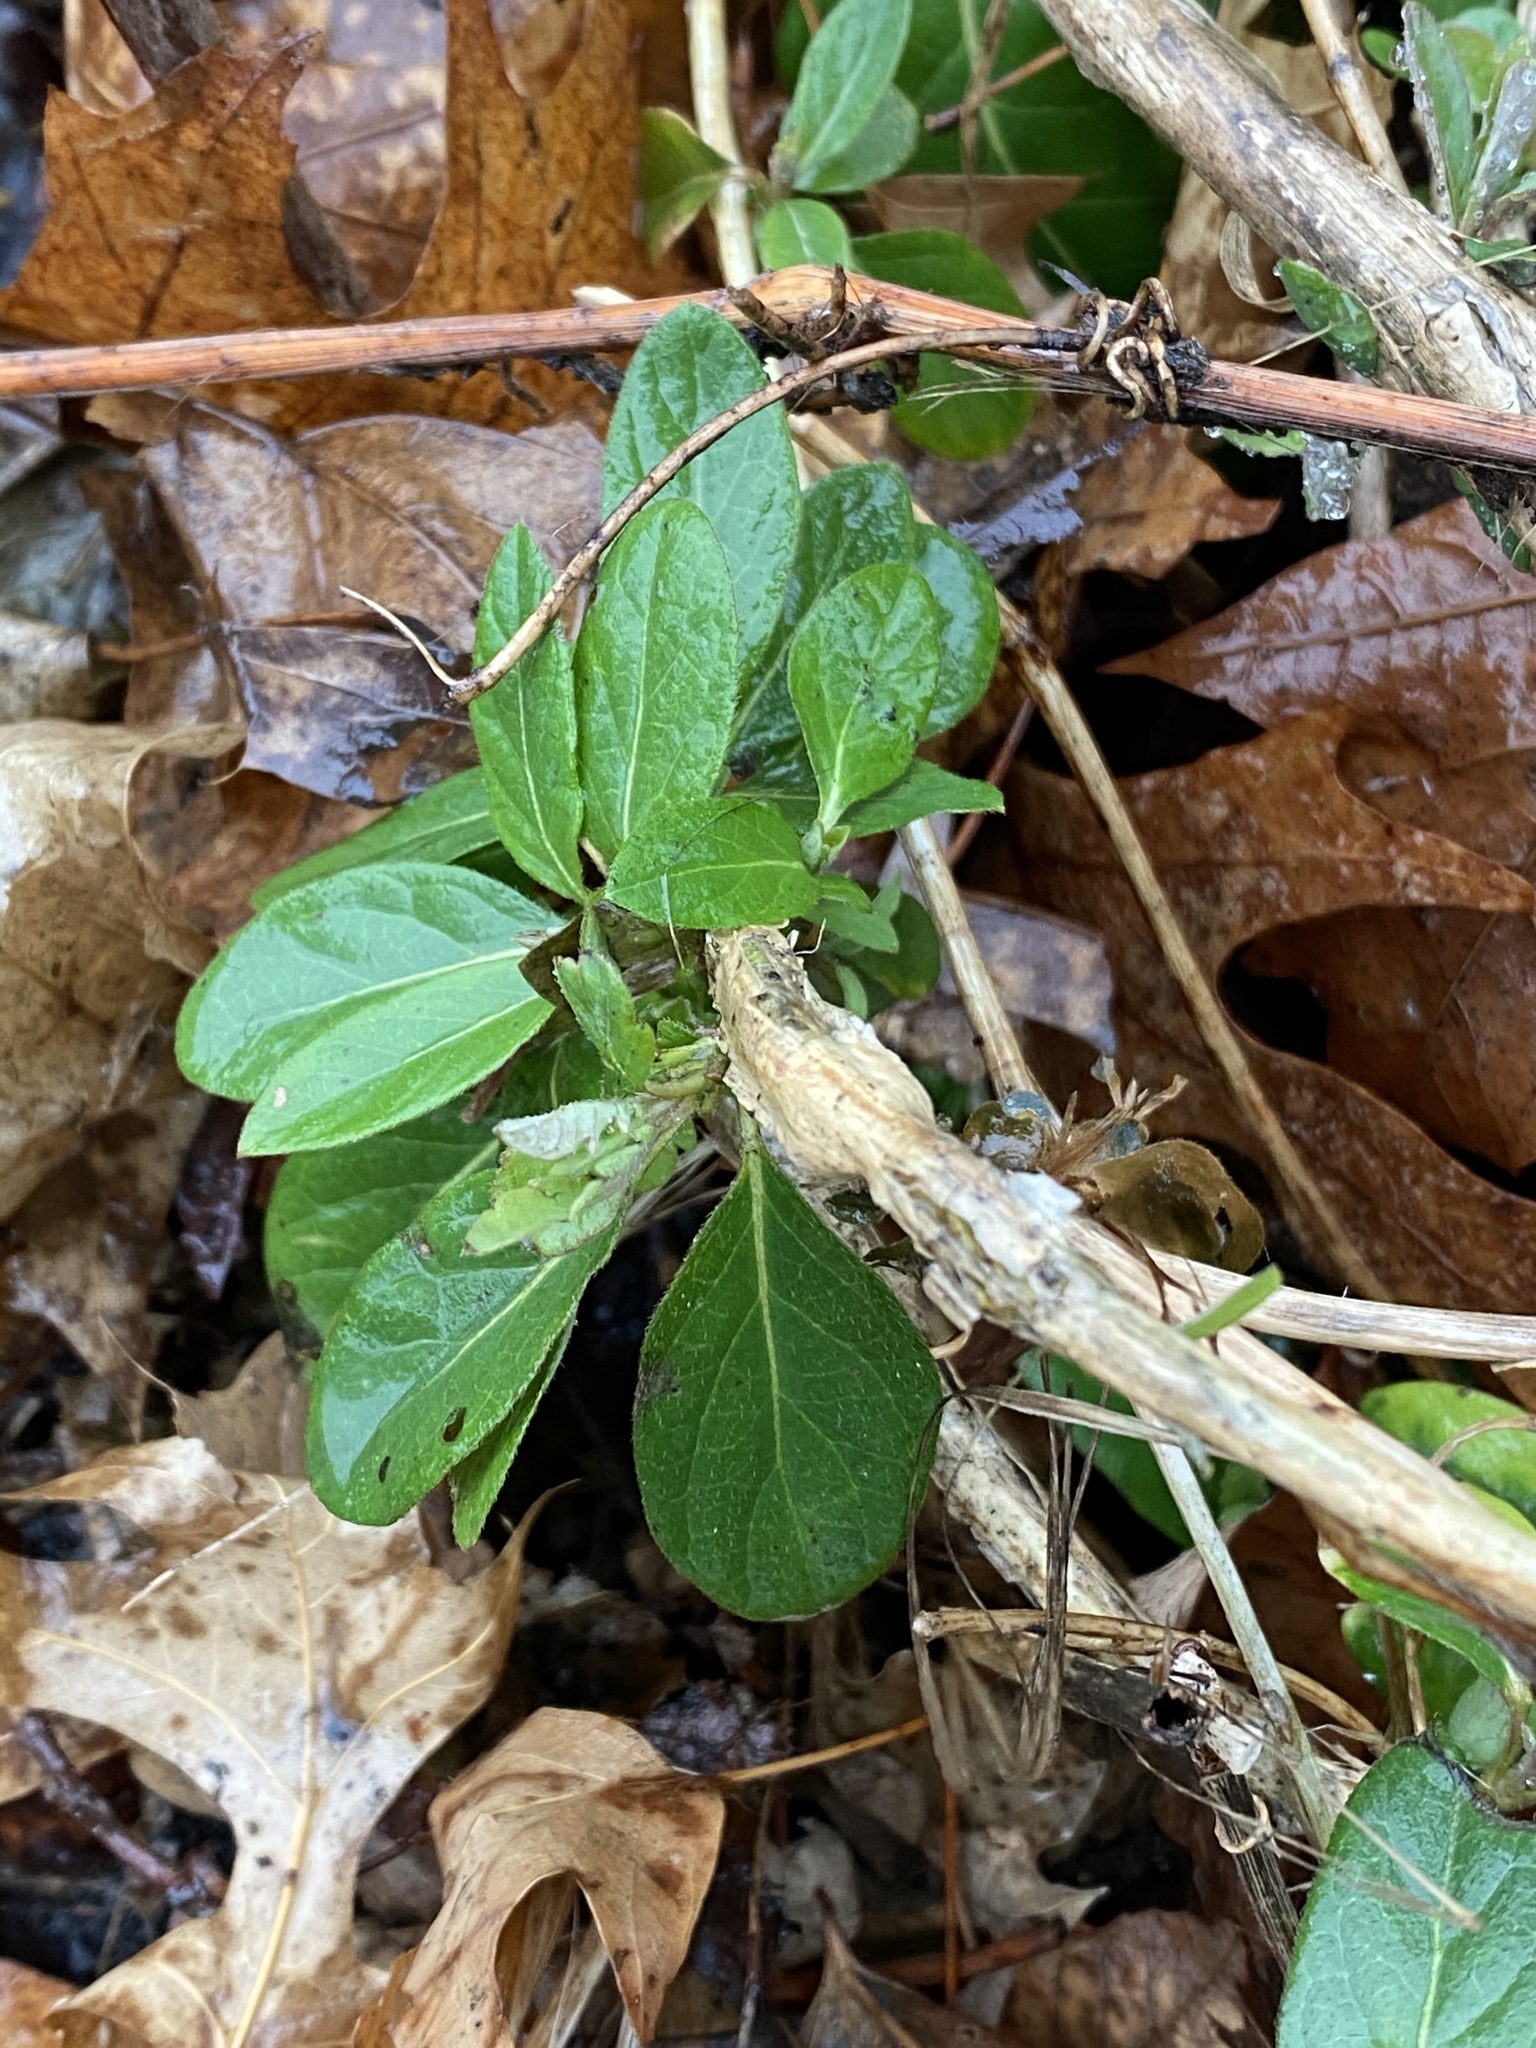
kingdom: Plantae
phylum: Tracheophyta
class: Magnoliopsida
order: Dipsacales
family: Caprifoliaceae
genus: Lonicera
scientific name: Lonicera japonica
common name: Japanese honeysuckle
